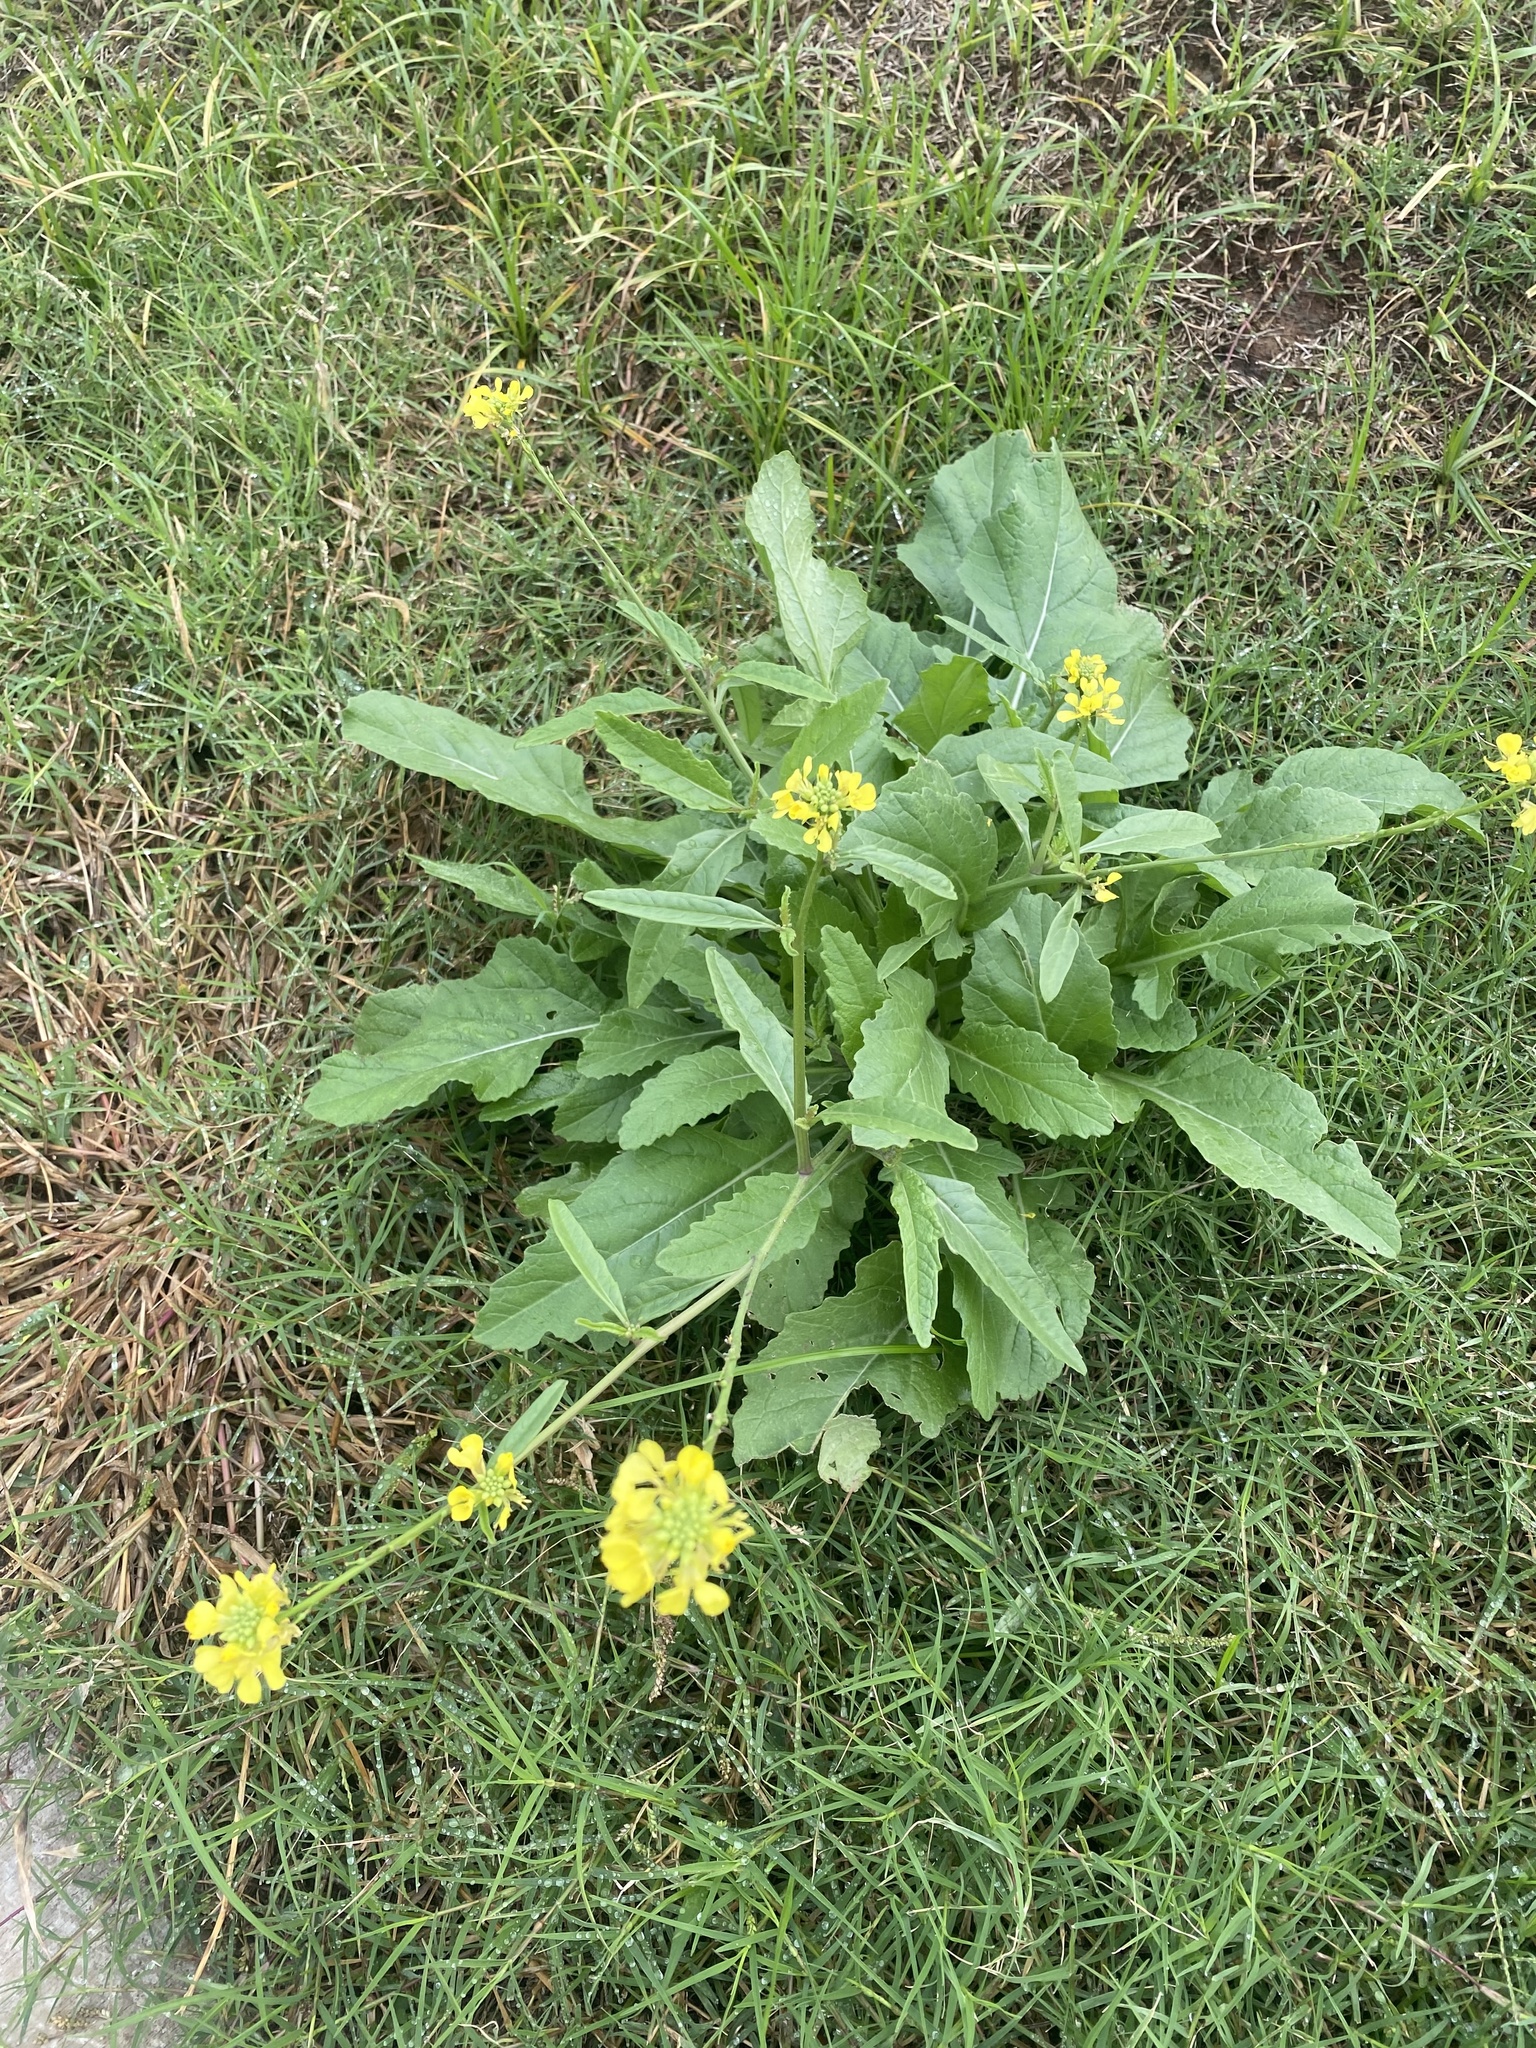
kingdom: Plantae
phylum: Tracheophyta
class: Magnoliopsida
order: Brassicales
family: Brassicaceae
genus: Rapistrum
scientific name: Rapistrum rugosum
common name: Annual bastardcabbage
